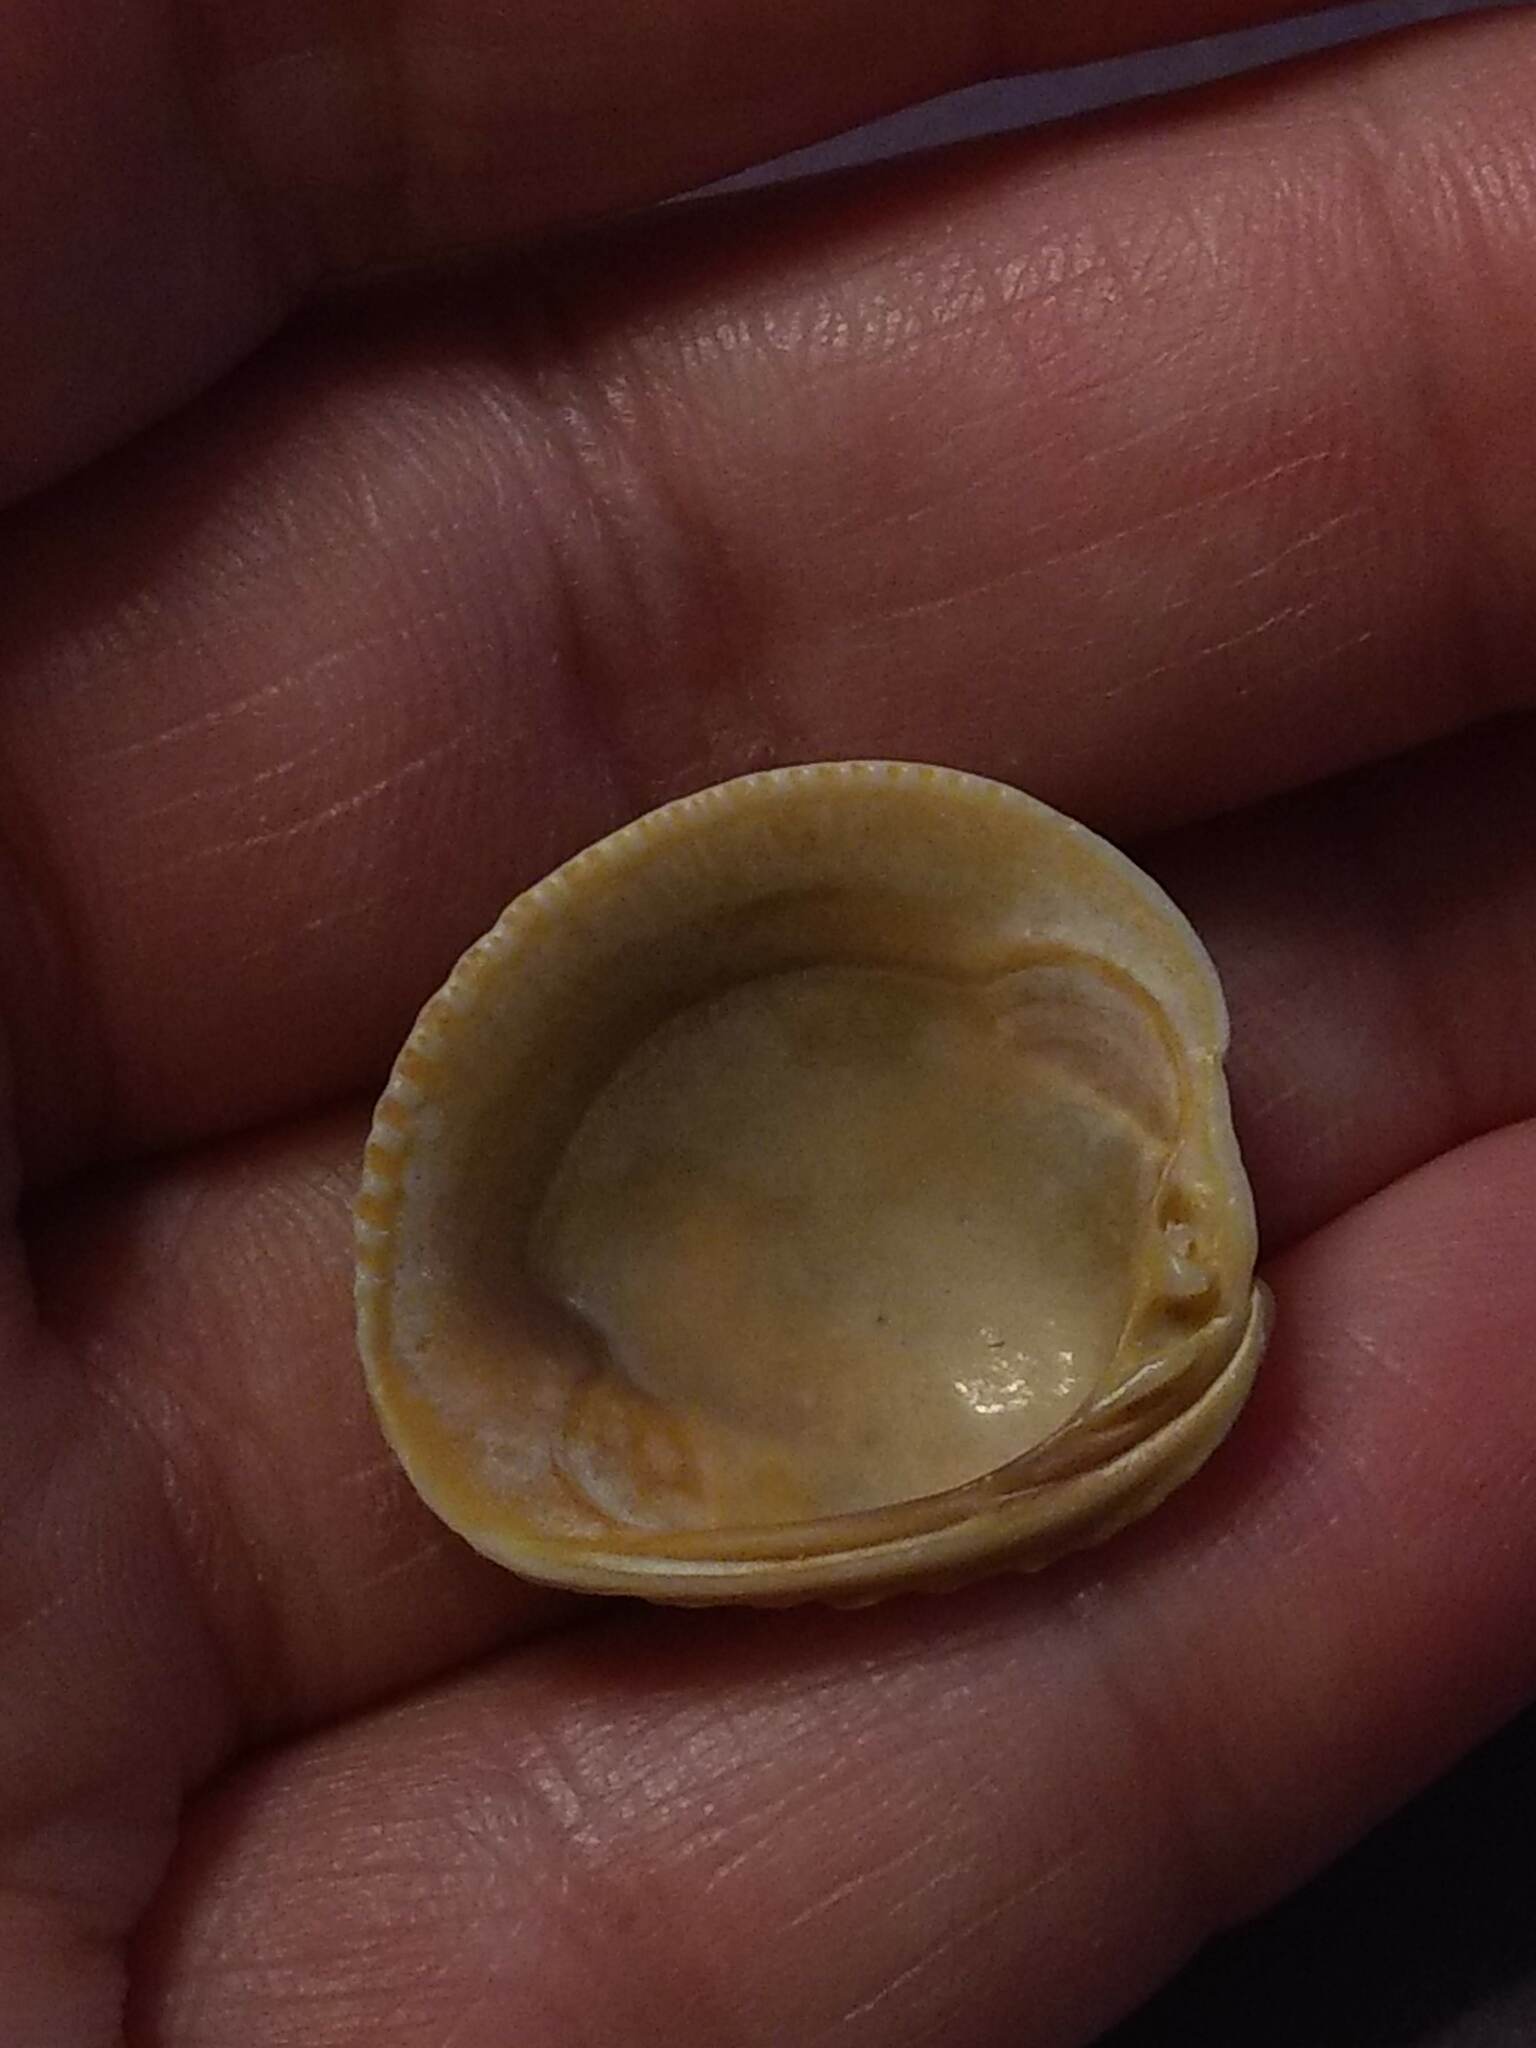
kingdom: Animalia
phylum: Mollusca
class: Bivalvia
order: Venerida
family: Veneridae
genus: Chione
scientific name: Chione elevata
